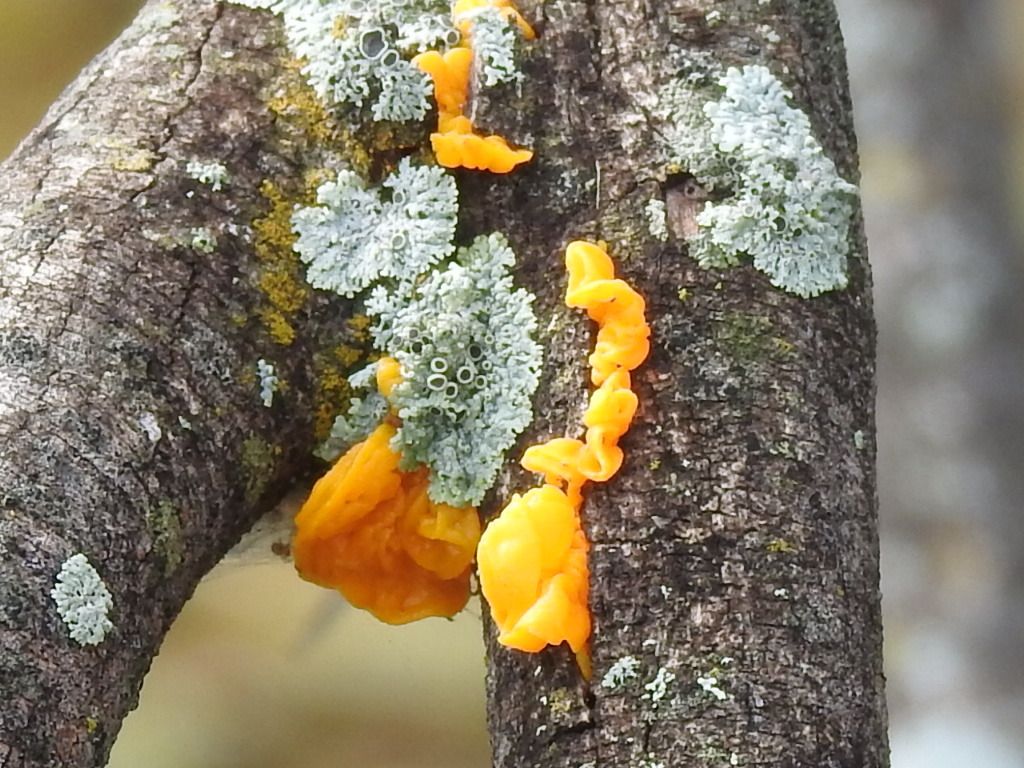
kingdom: Fungi
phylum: Basidiomycota
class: Tremellomycetes
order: Tremellales
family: Tremellaceae
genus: Tremella
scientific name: Tremella mesenterica
